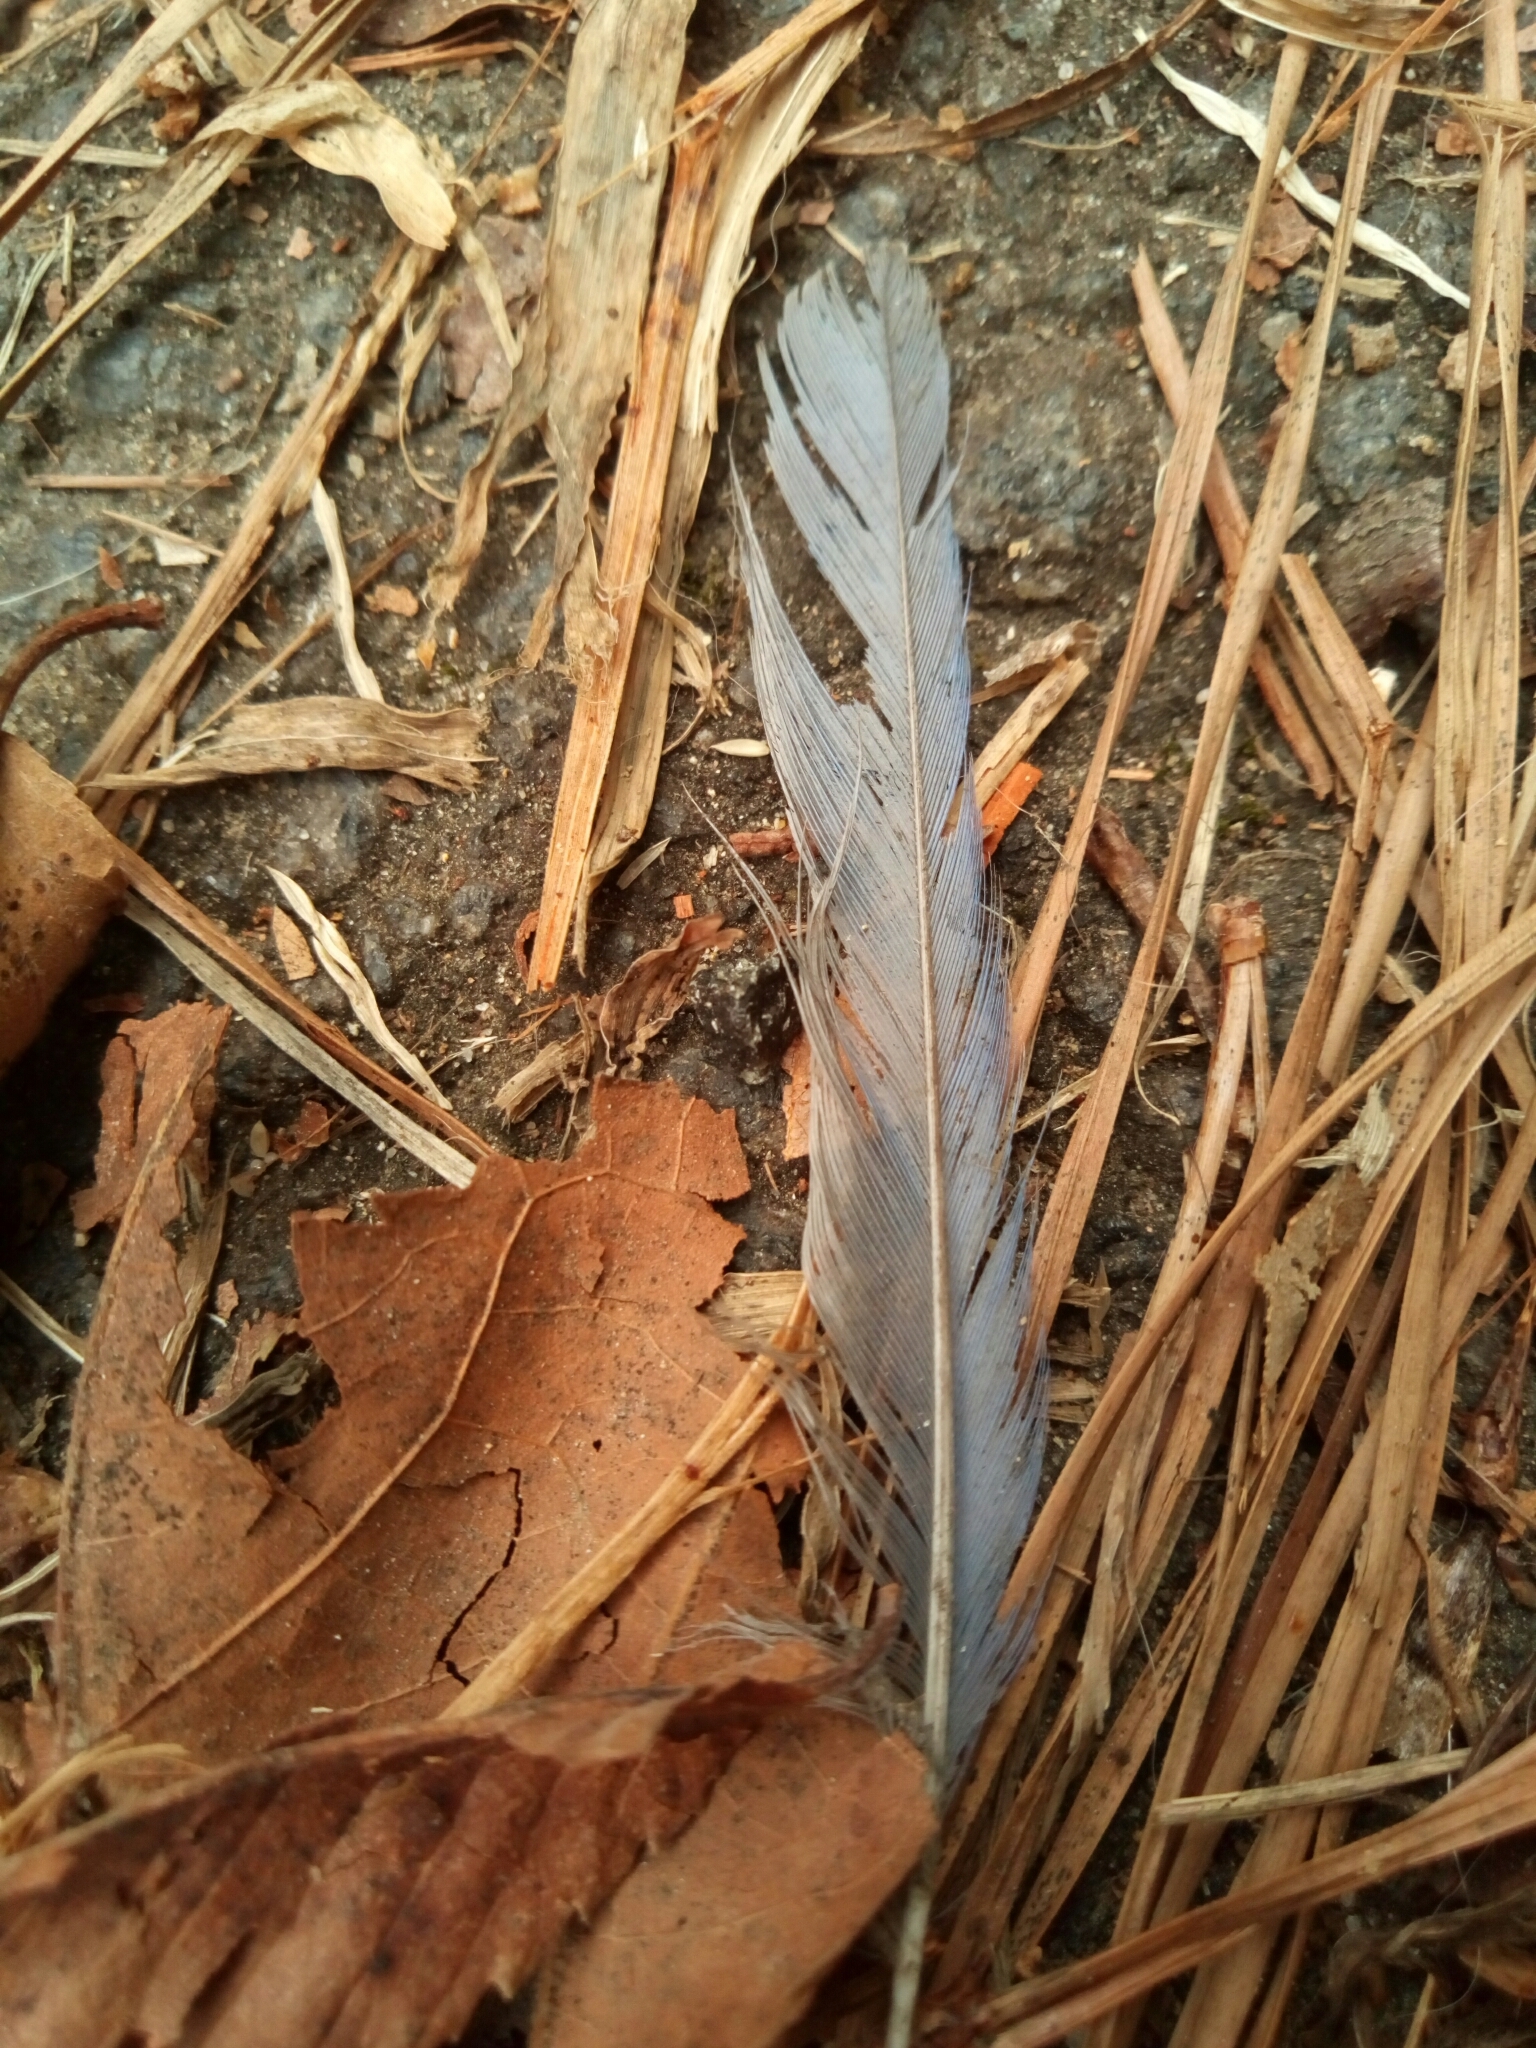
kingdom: Animalia
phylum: Chordata
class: Aves
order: Passeriformes
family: Turdidae
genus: Sialia
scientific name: Sialia sialis
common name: Eastern bluebird
